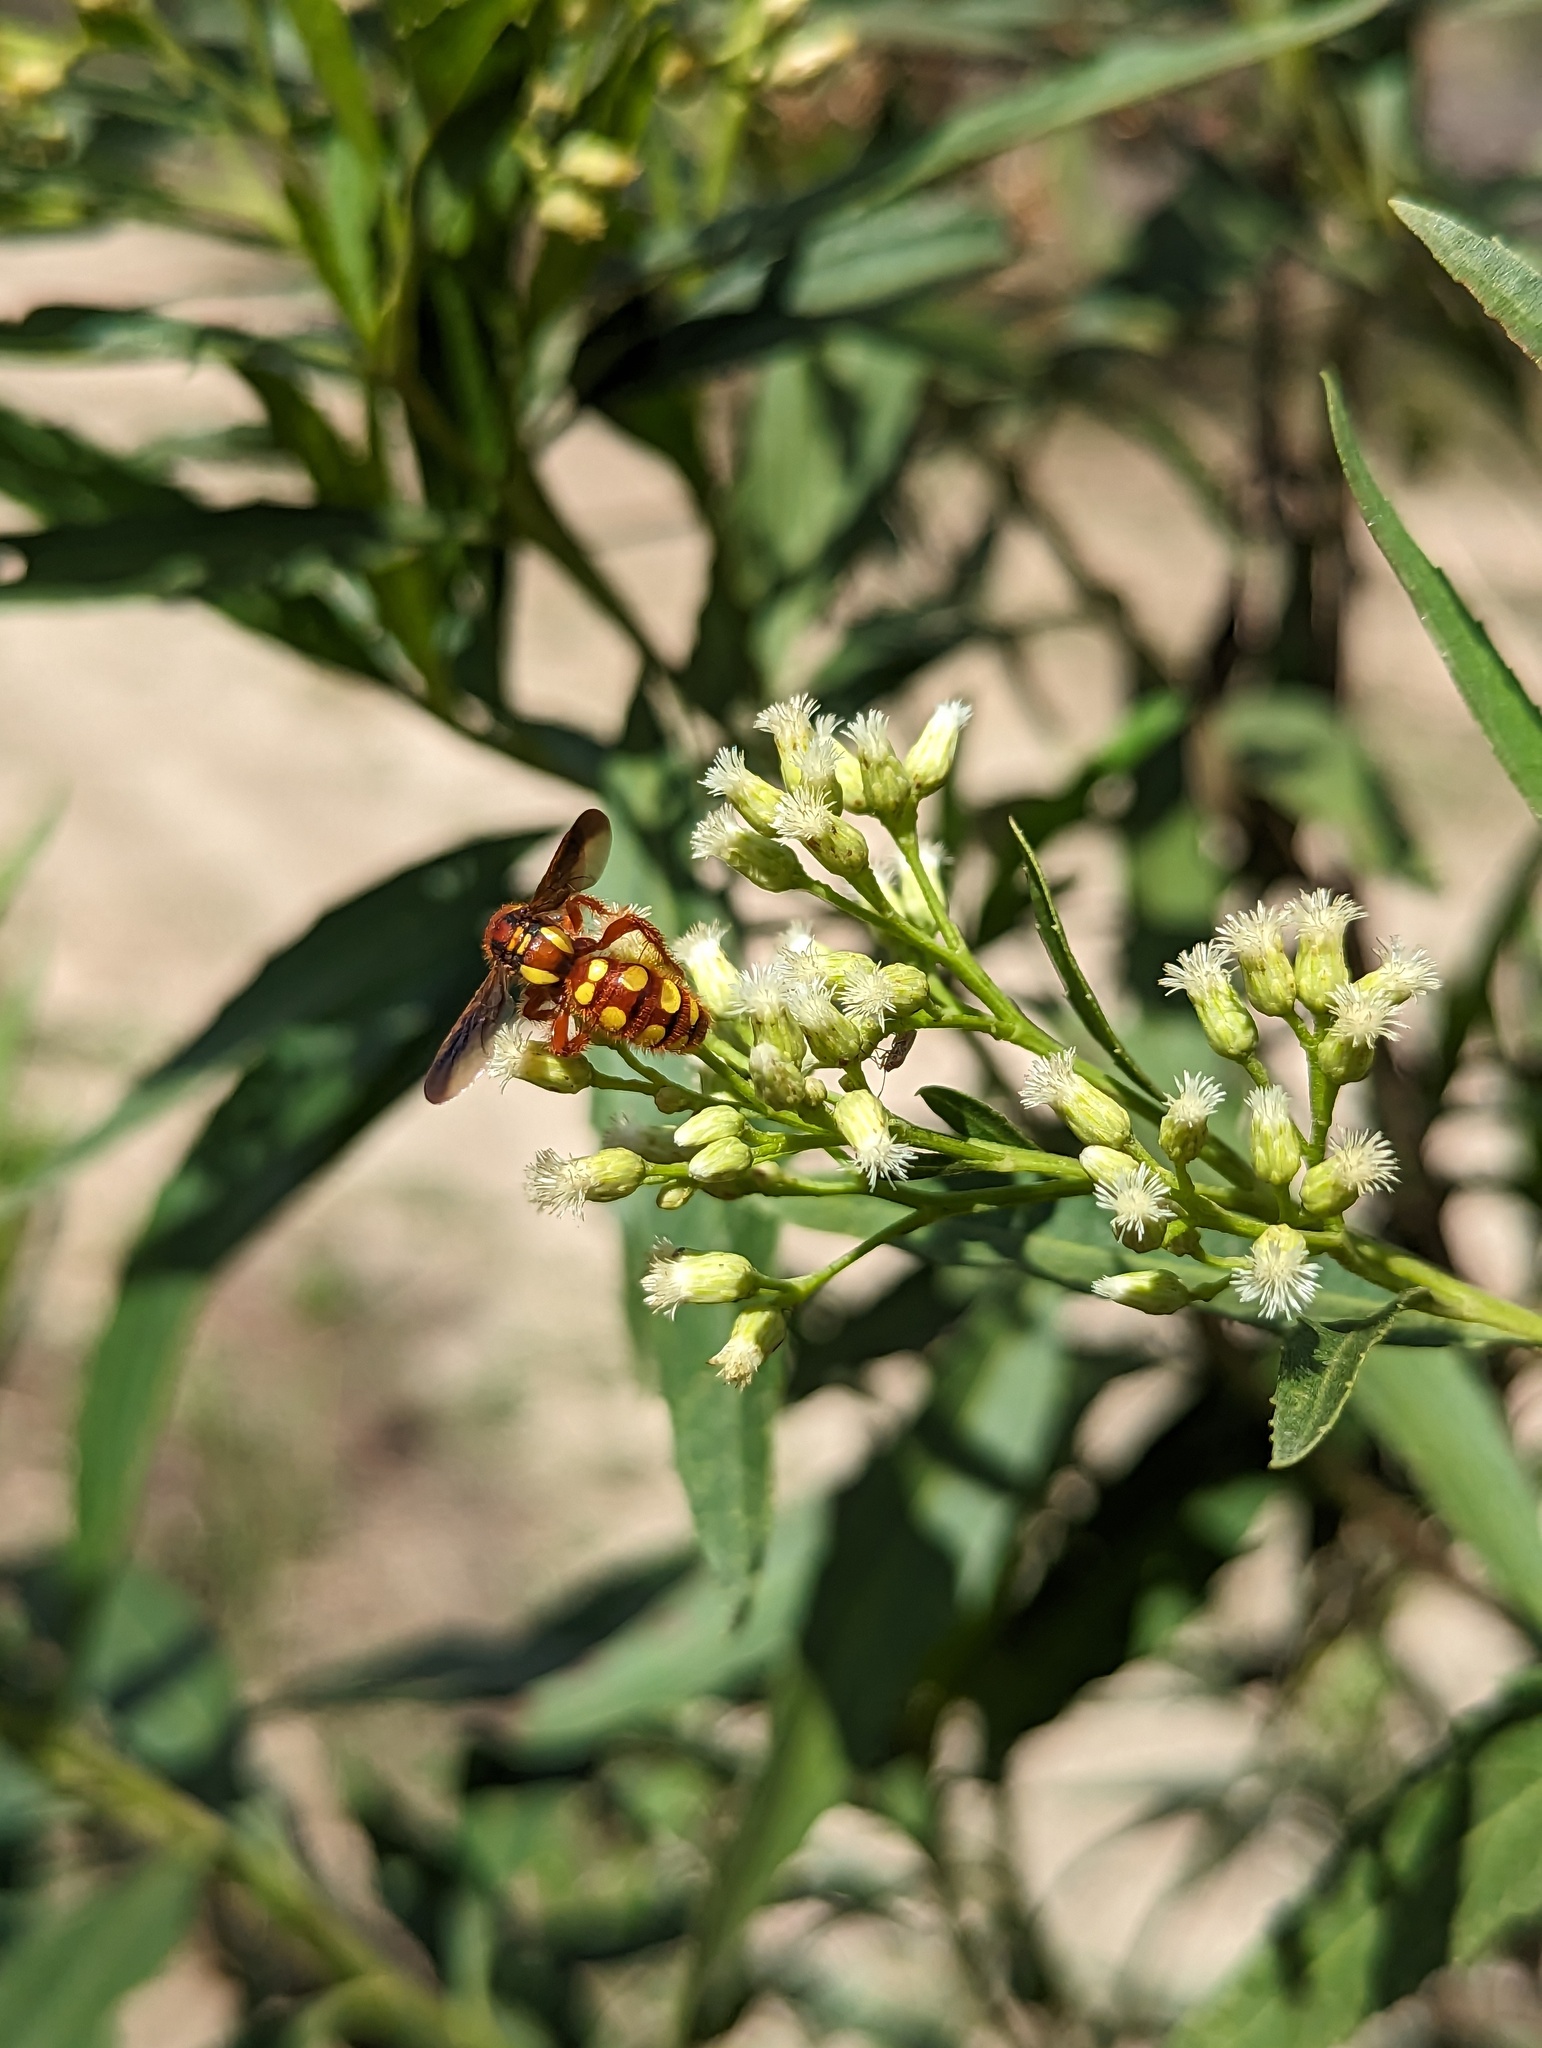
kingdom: Animalia
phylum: Arthropoda
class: Insecta
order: Hymenoptera
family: Scoliidae
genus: Colpa
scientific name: Colpa octomaculata
